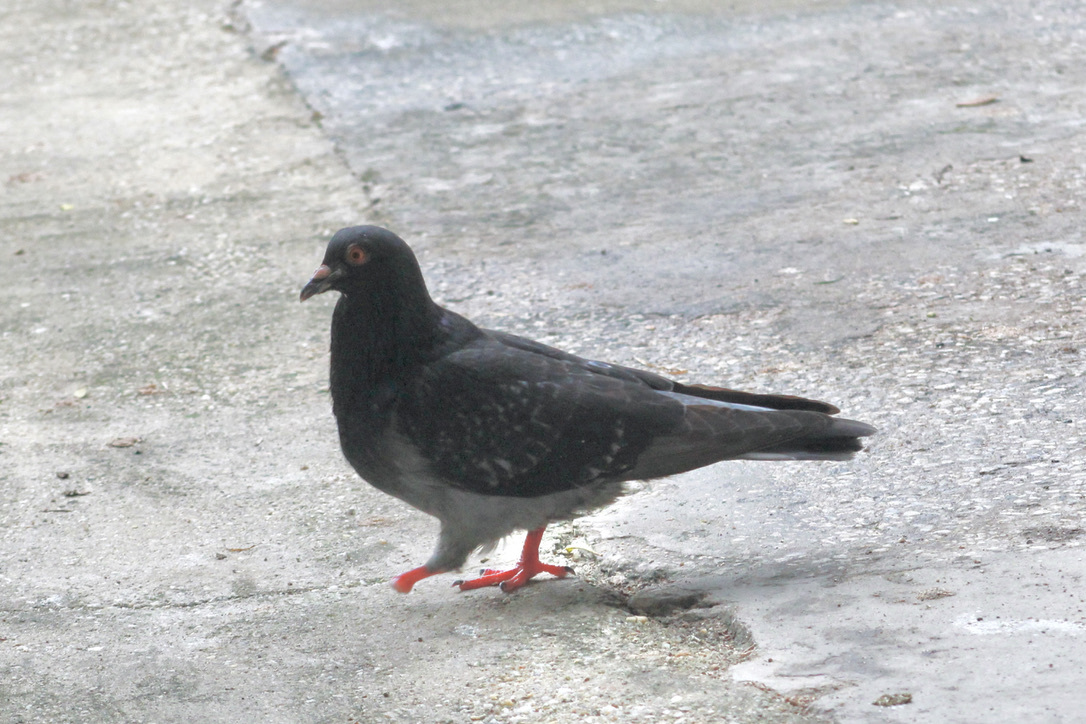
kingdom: Animalia
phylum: Chordata
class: Aves
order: Columbiformes
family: Columbidae
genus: Columba
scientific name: Columba livia
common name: Rock pigeon
